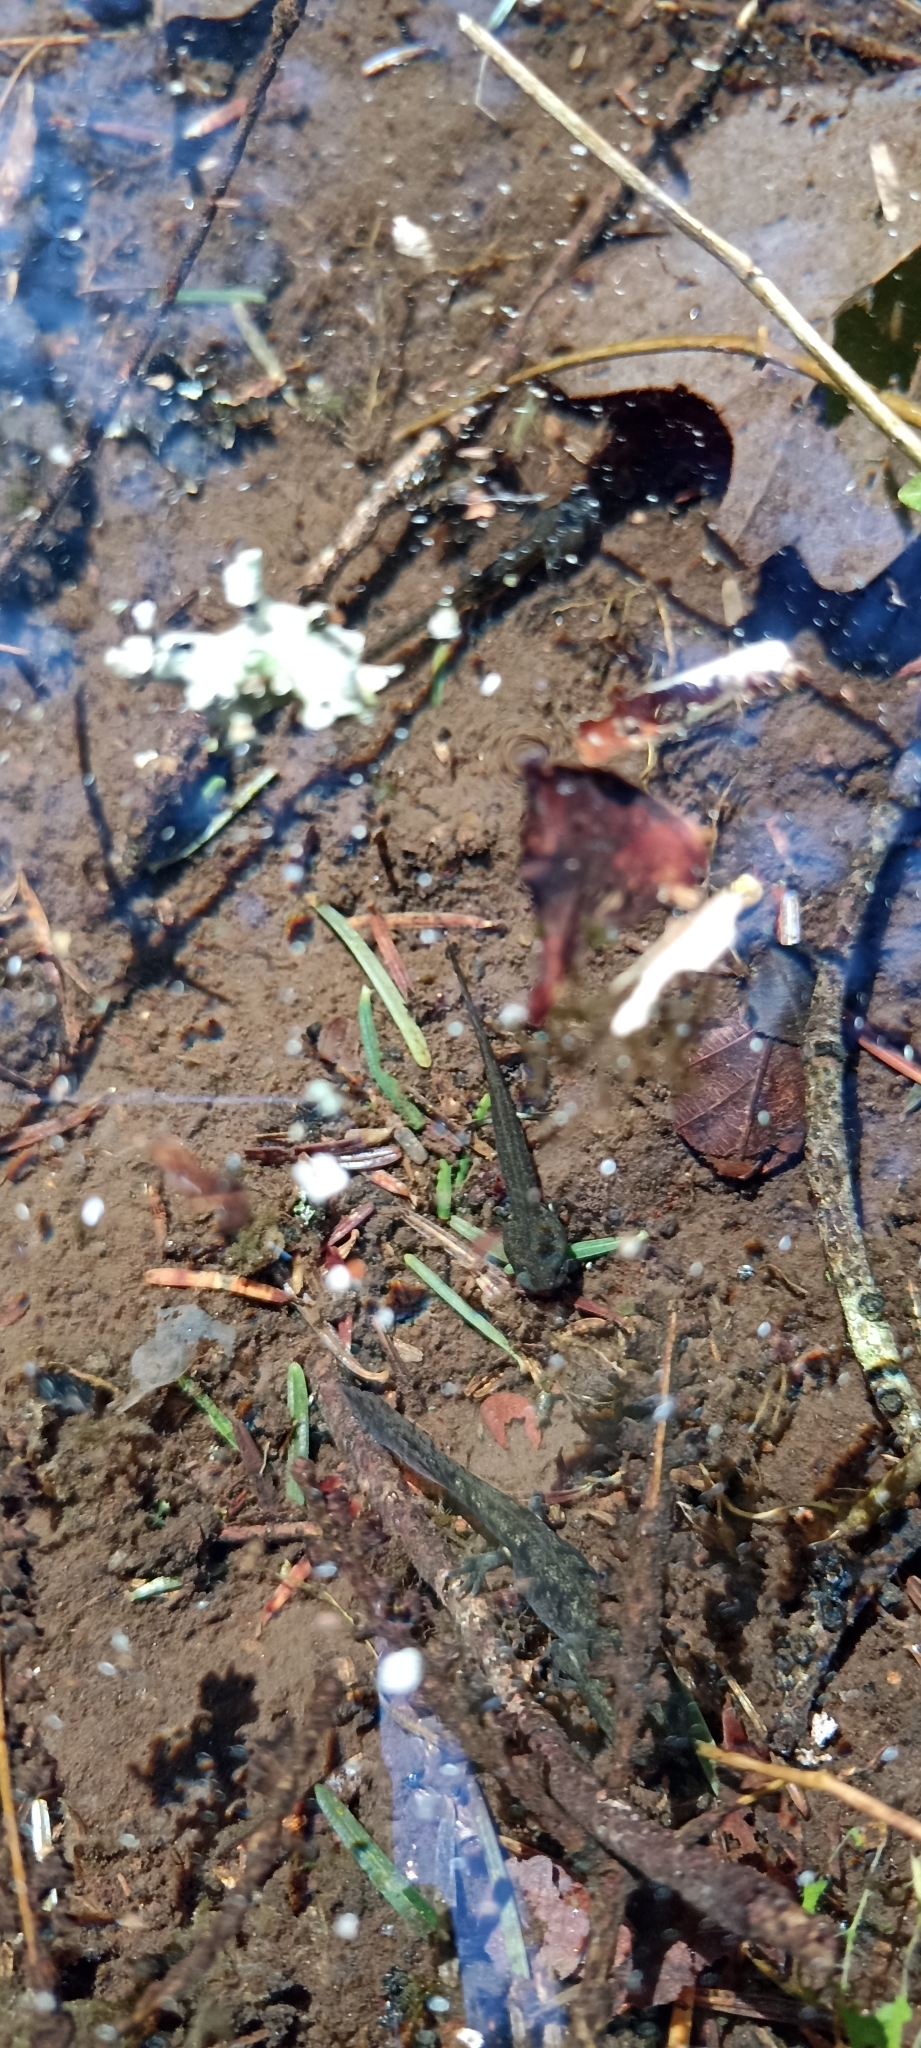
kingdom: Animalia
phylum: Chordata
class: Amphibia
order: Caudata
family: Salamandridae
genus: Salamandra
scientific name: Salamandra salamandra
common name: Fire salamander
